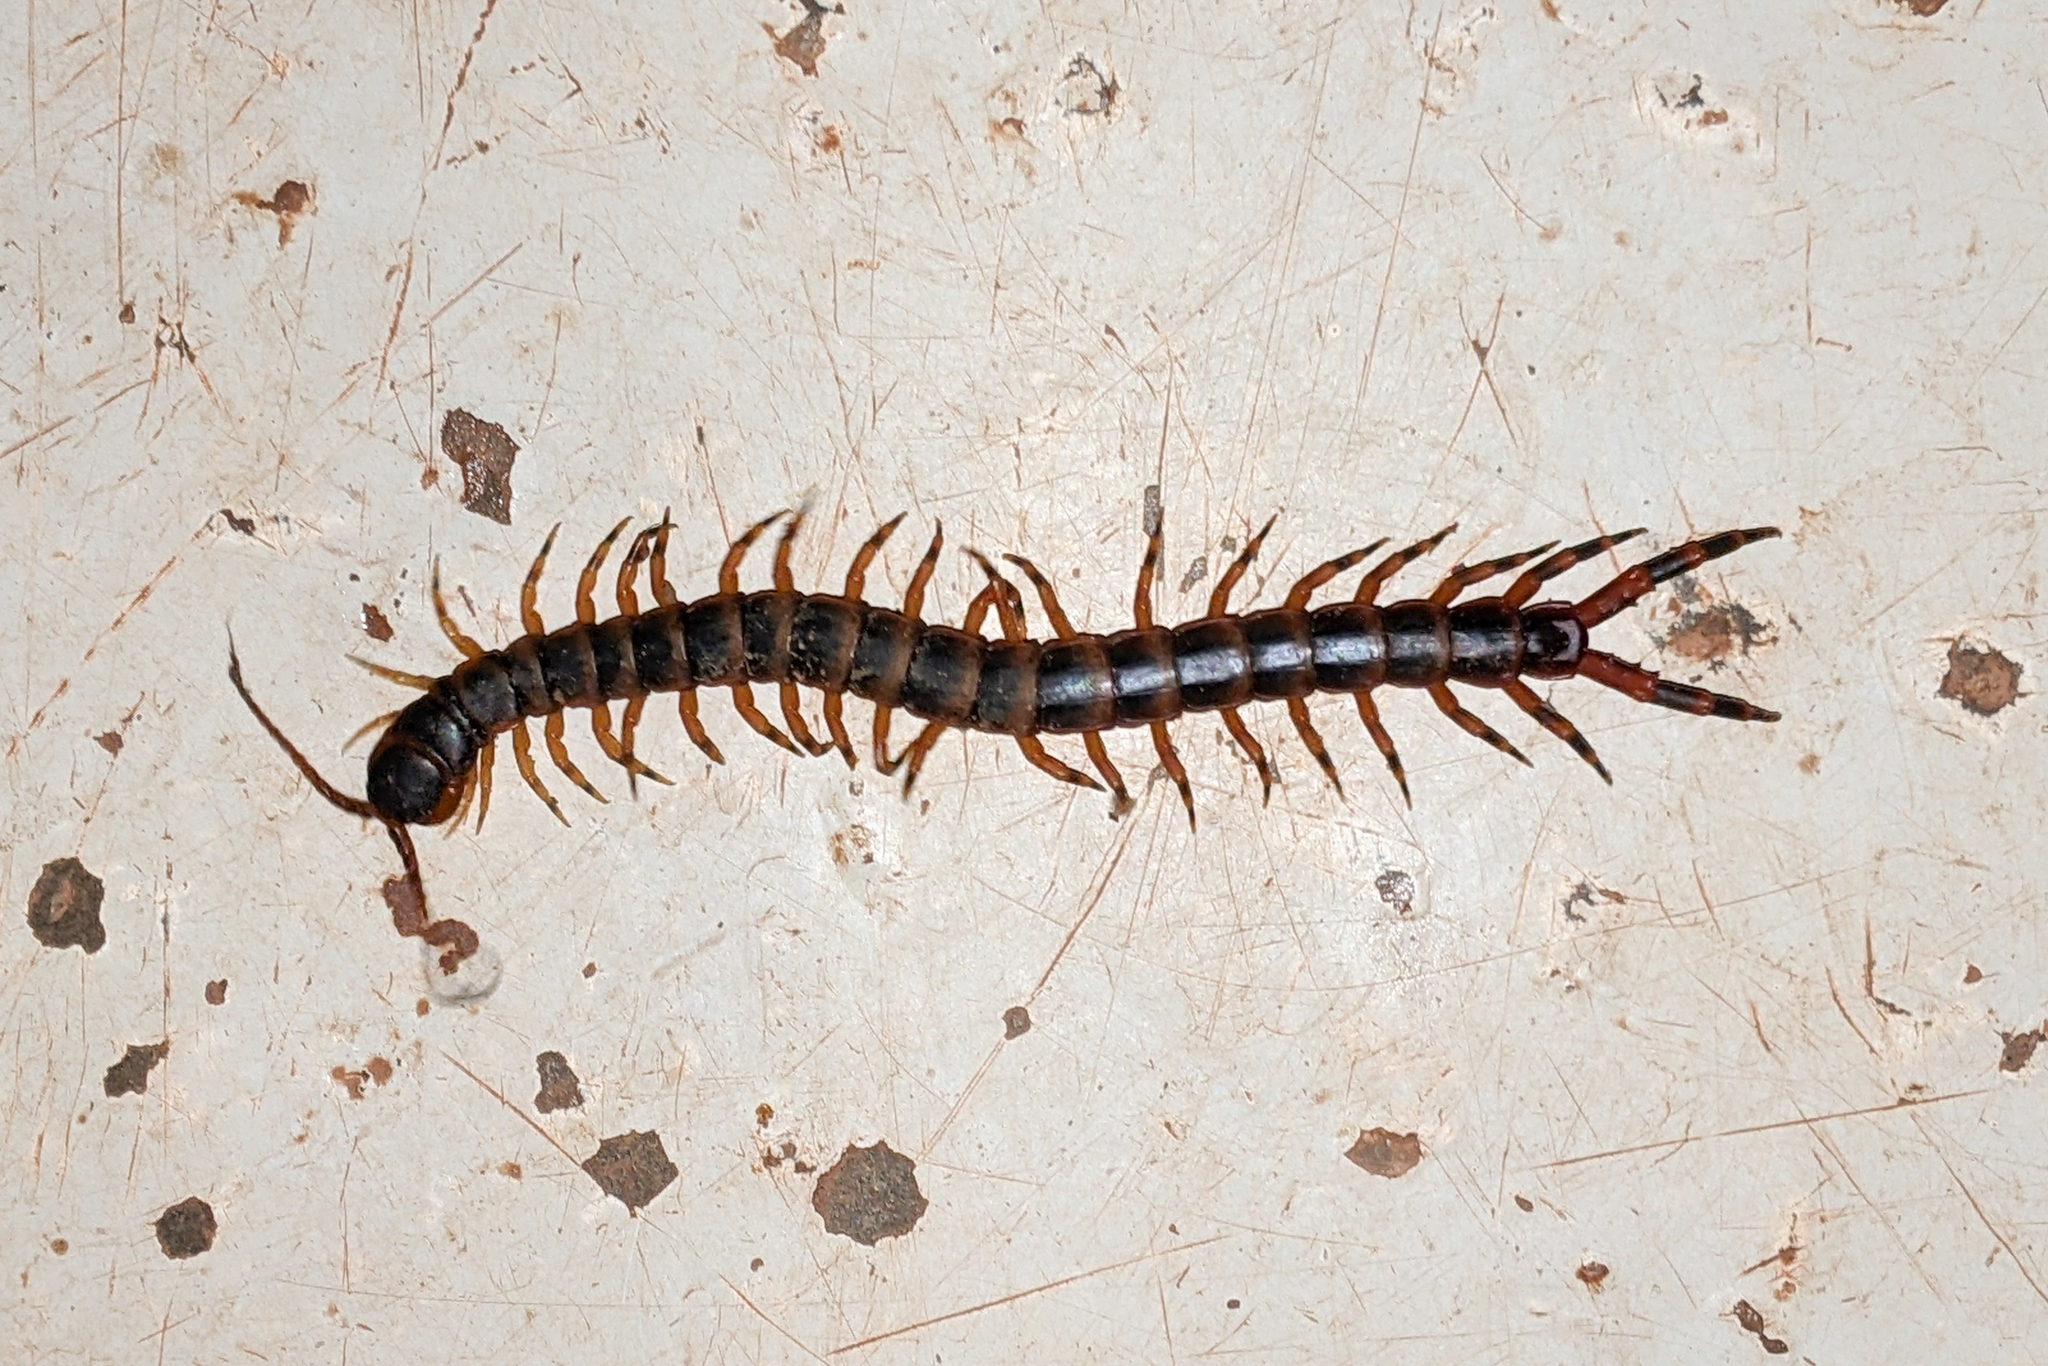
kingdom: Animalia
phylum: Arthropoda
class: Chilopoda
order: Scolopendromorpha
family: Scolopendridae
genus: Scolopendra
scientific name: Scolopendra viridicornis
